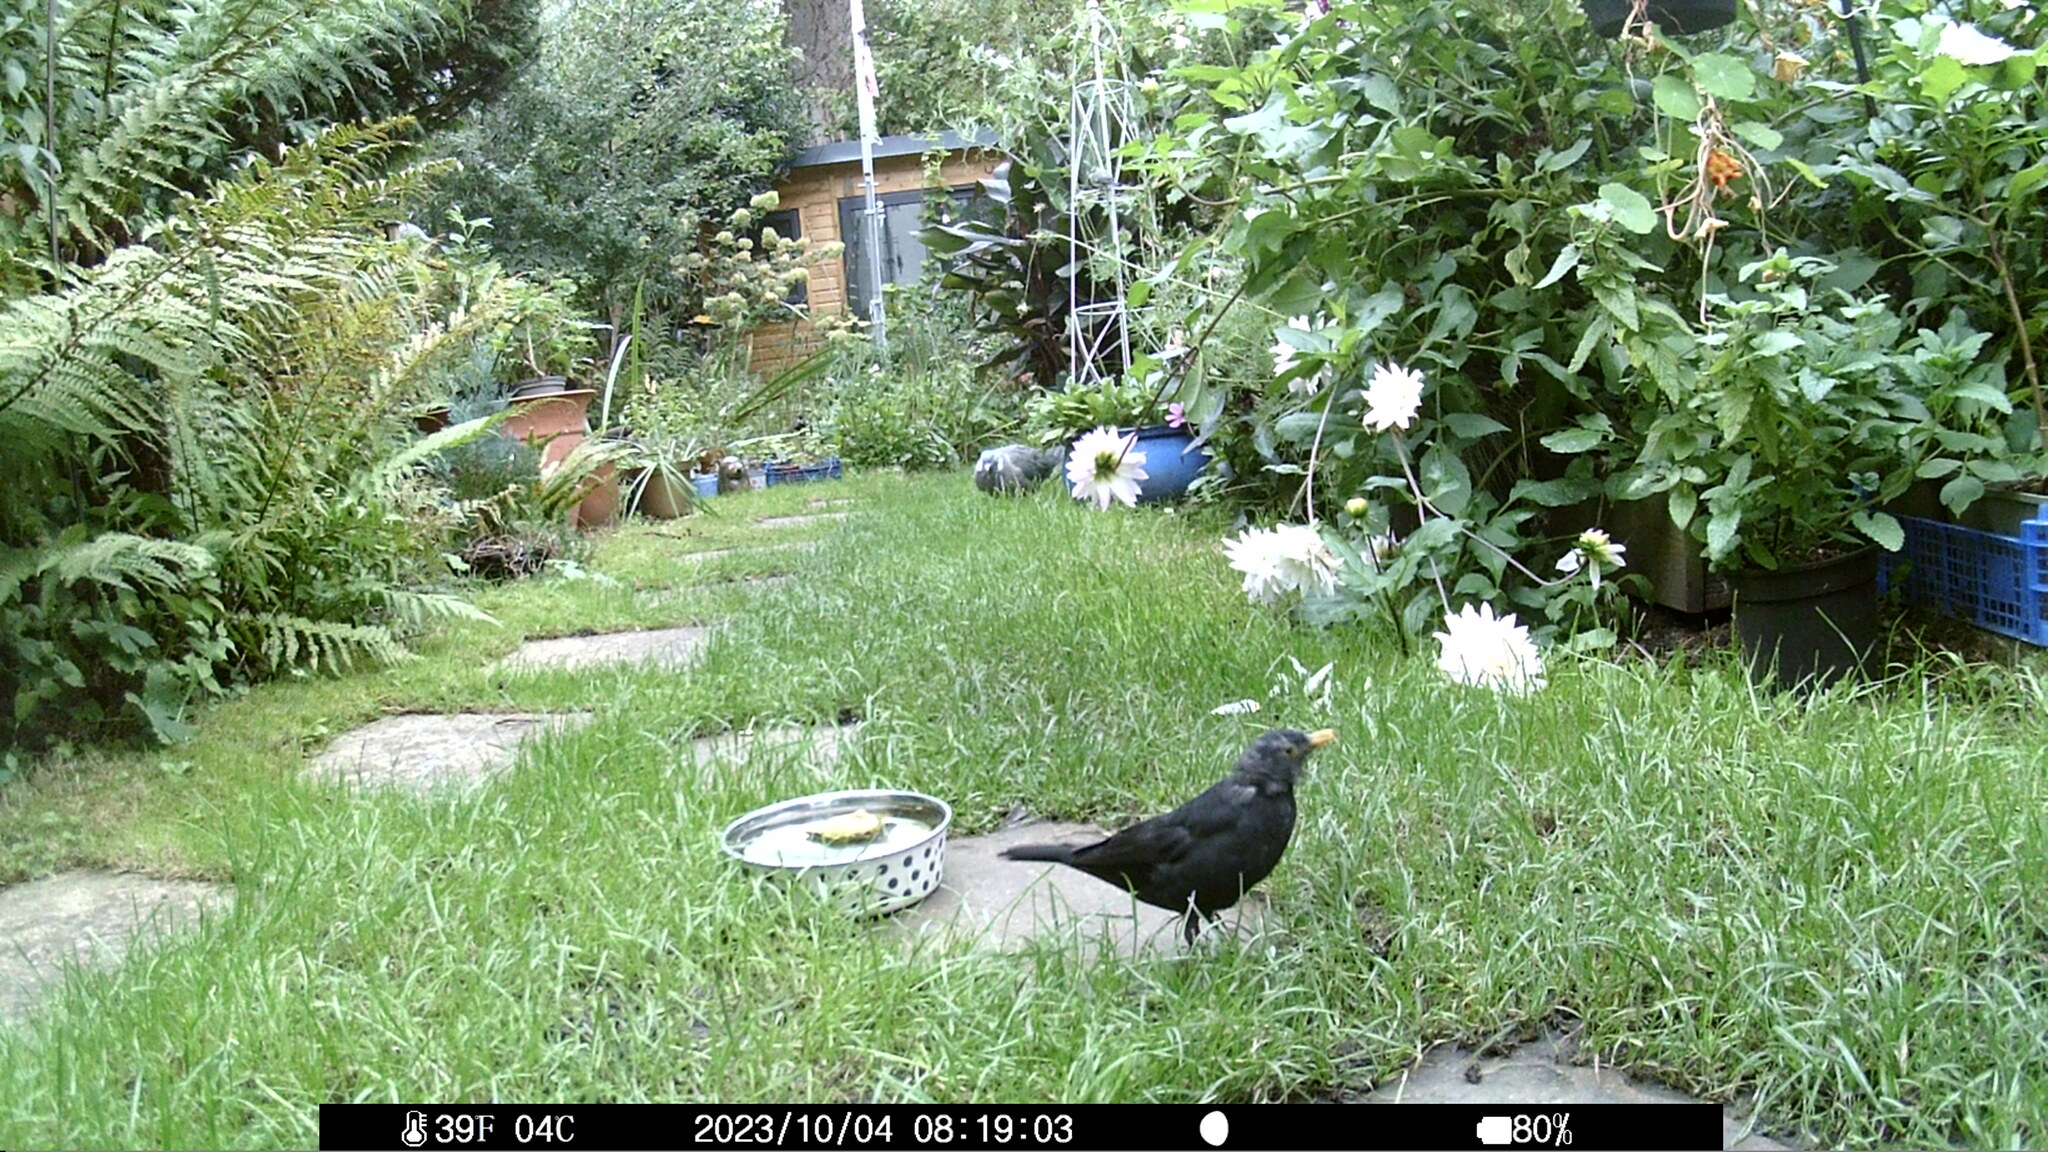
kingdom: Animalia
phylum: Chordata
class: Aves
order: Passeriformes
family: Turdidae
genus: Turdus
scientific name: Turdus merula
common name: Common blackbird
